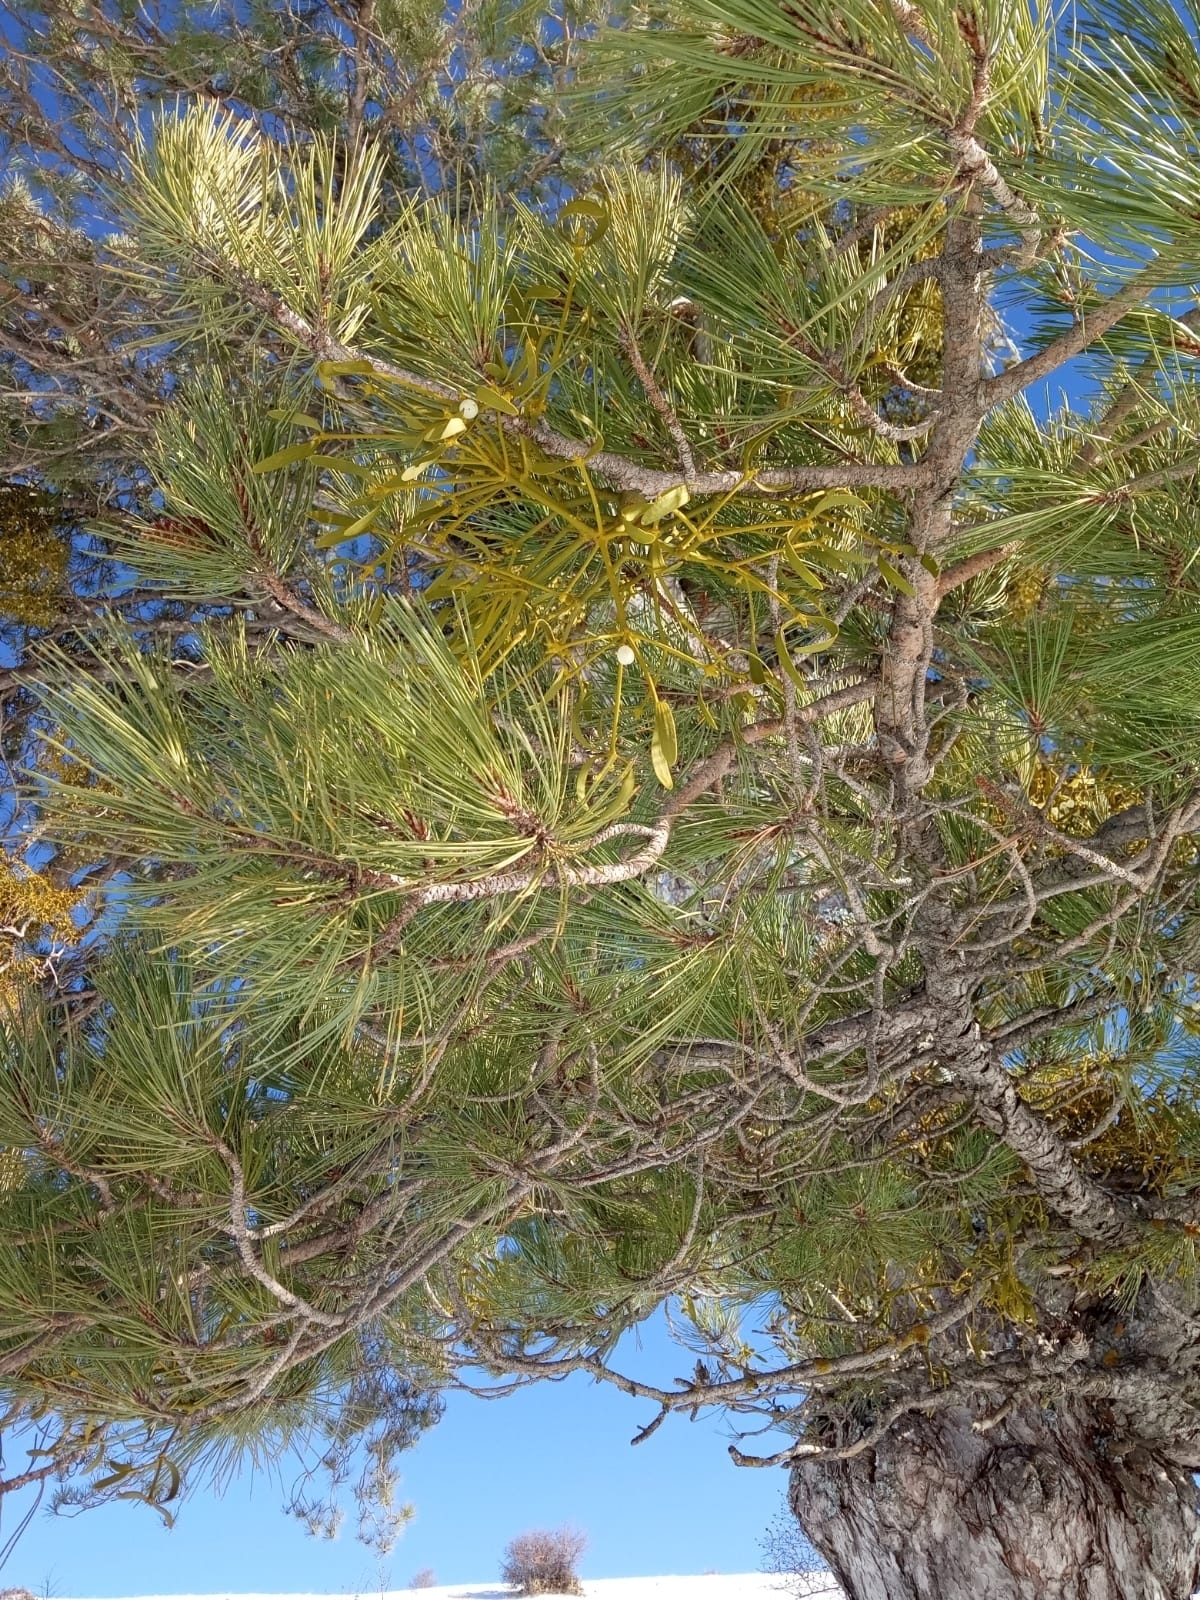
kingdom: Plantae
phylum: Tracheophyta
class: Magnoliopsida
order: Santalales
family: Viscaceae
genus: Viscum
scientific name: Viscum laxum
